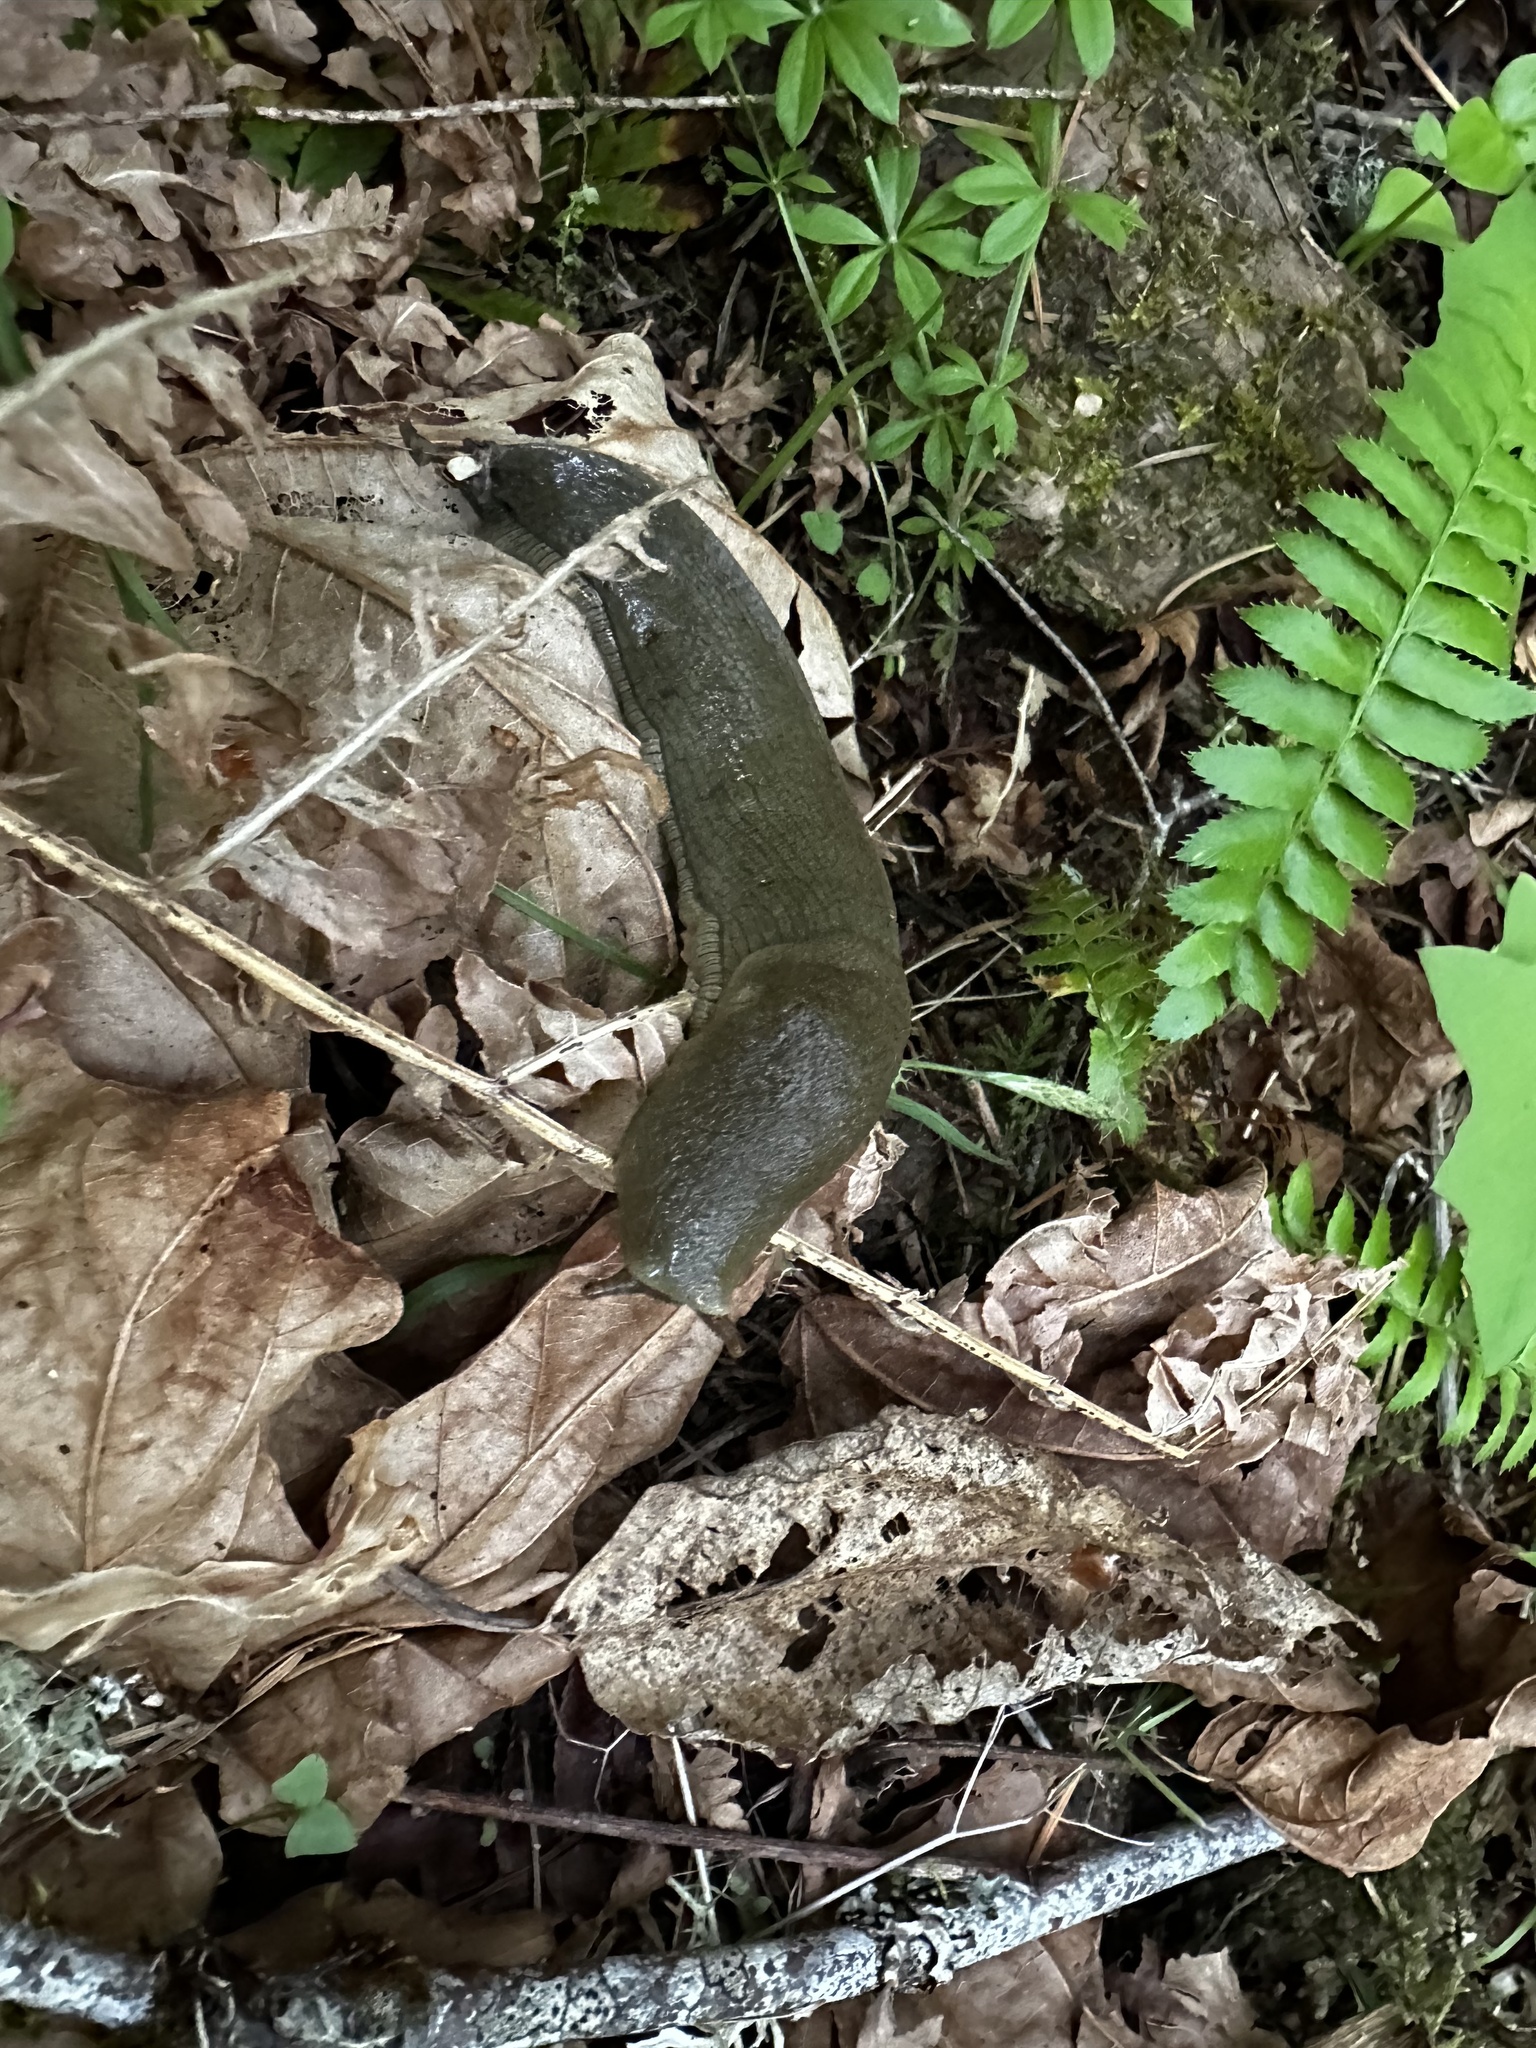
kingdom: Animalia
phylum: Mollusca
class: Gastropoda
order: Stylommatophora
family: Ariolimacidae
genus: Ariolimax
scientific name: Ariolimax columbianus
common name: Pacific banana slug
